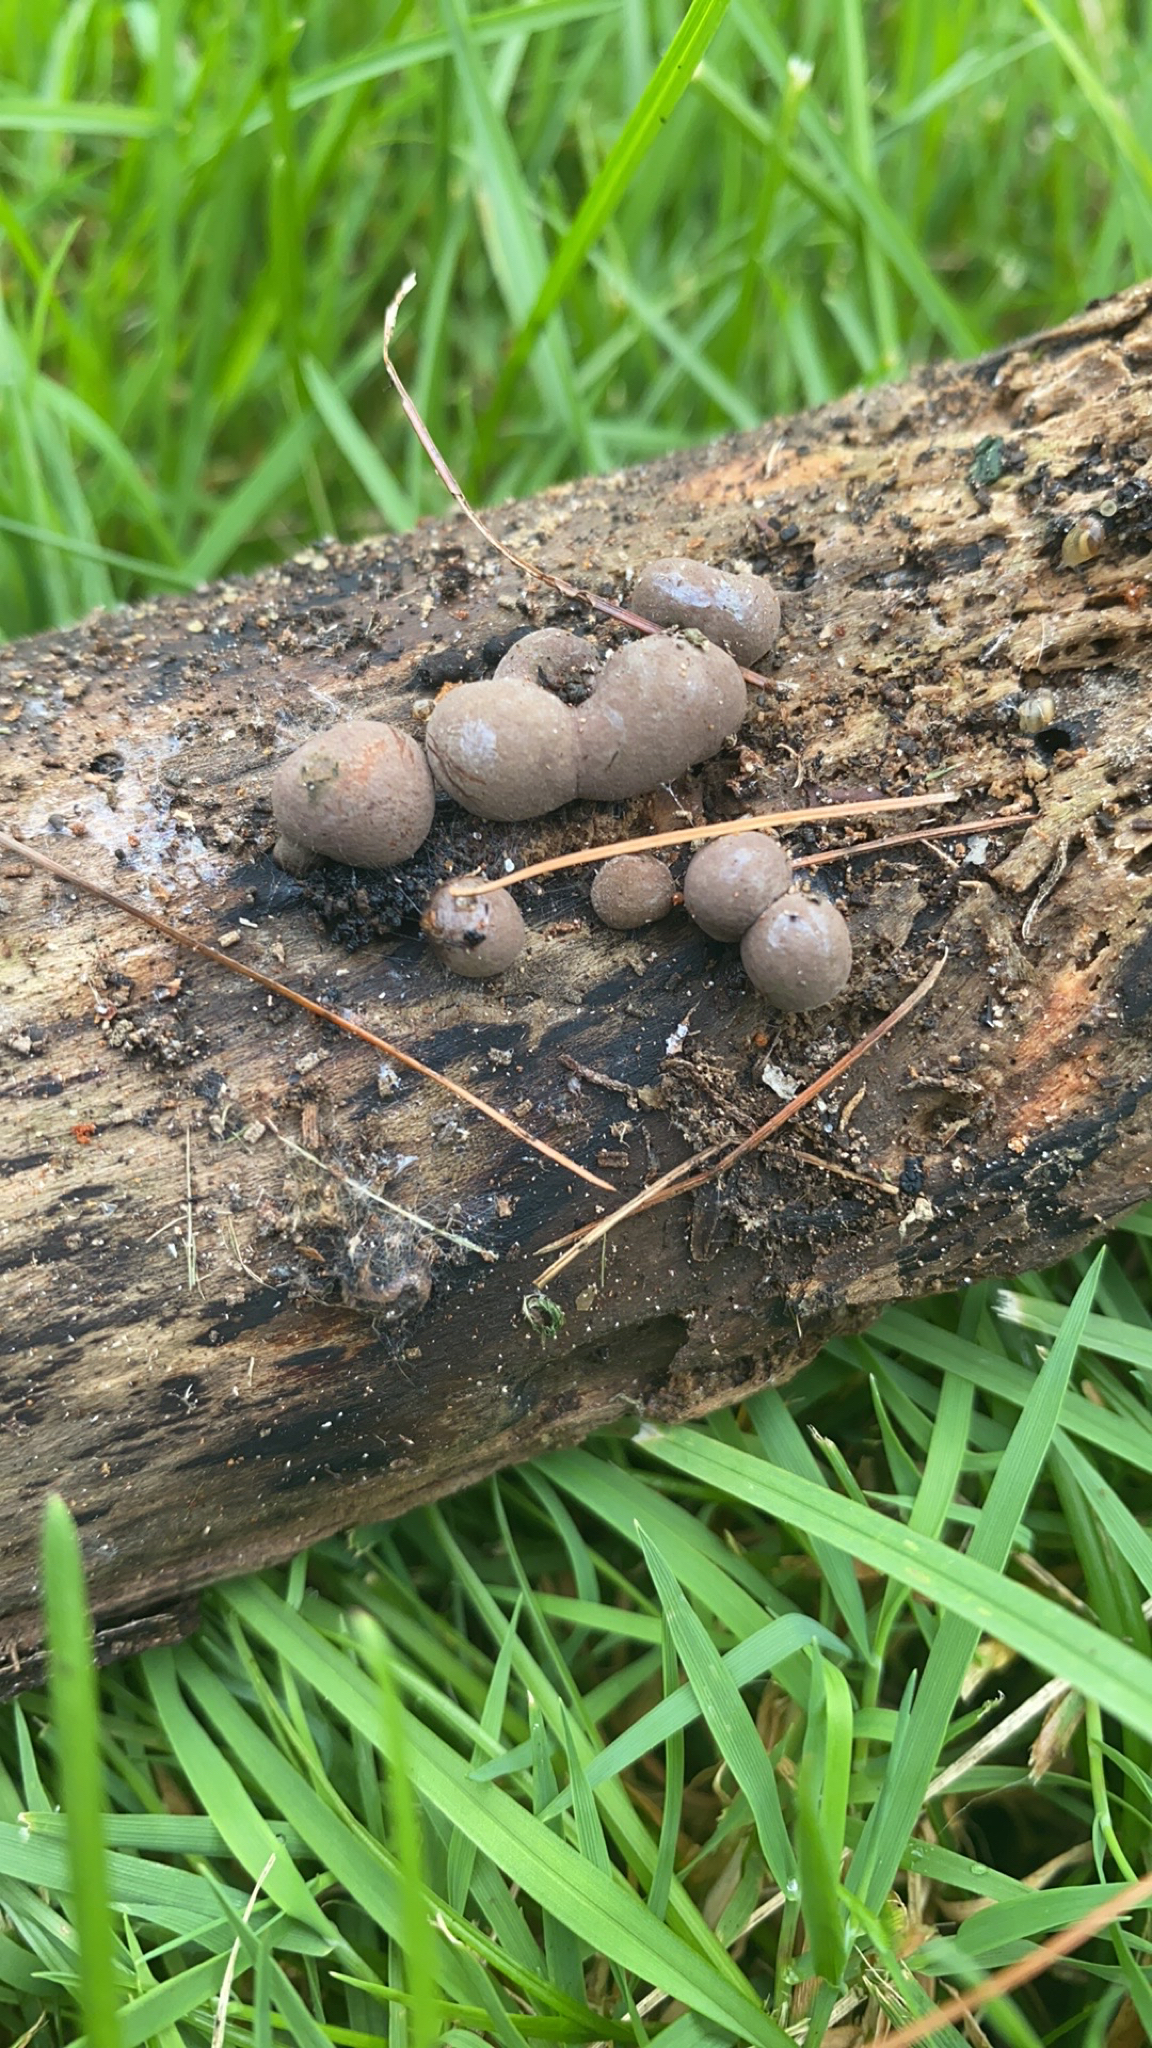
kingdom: Protozoa
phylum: Mycetozoa
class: Myxomycetes
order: Cribrariales
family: Tubiferaceae
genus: Lycogala
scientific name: Lycogala epidendrum
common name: Wolf's milk
